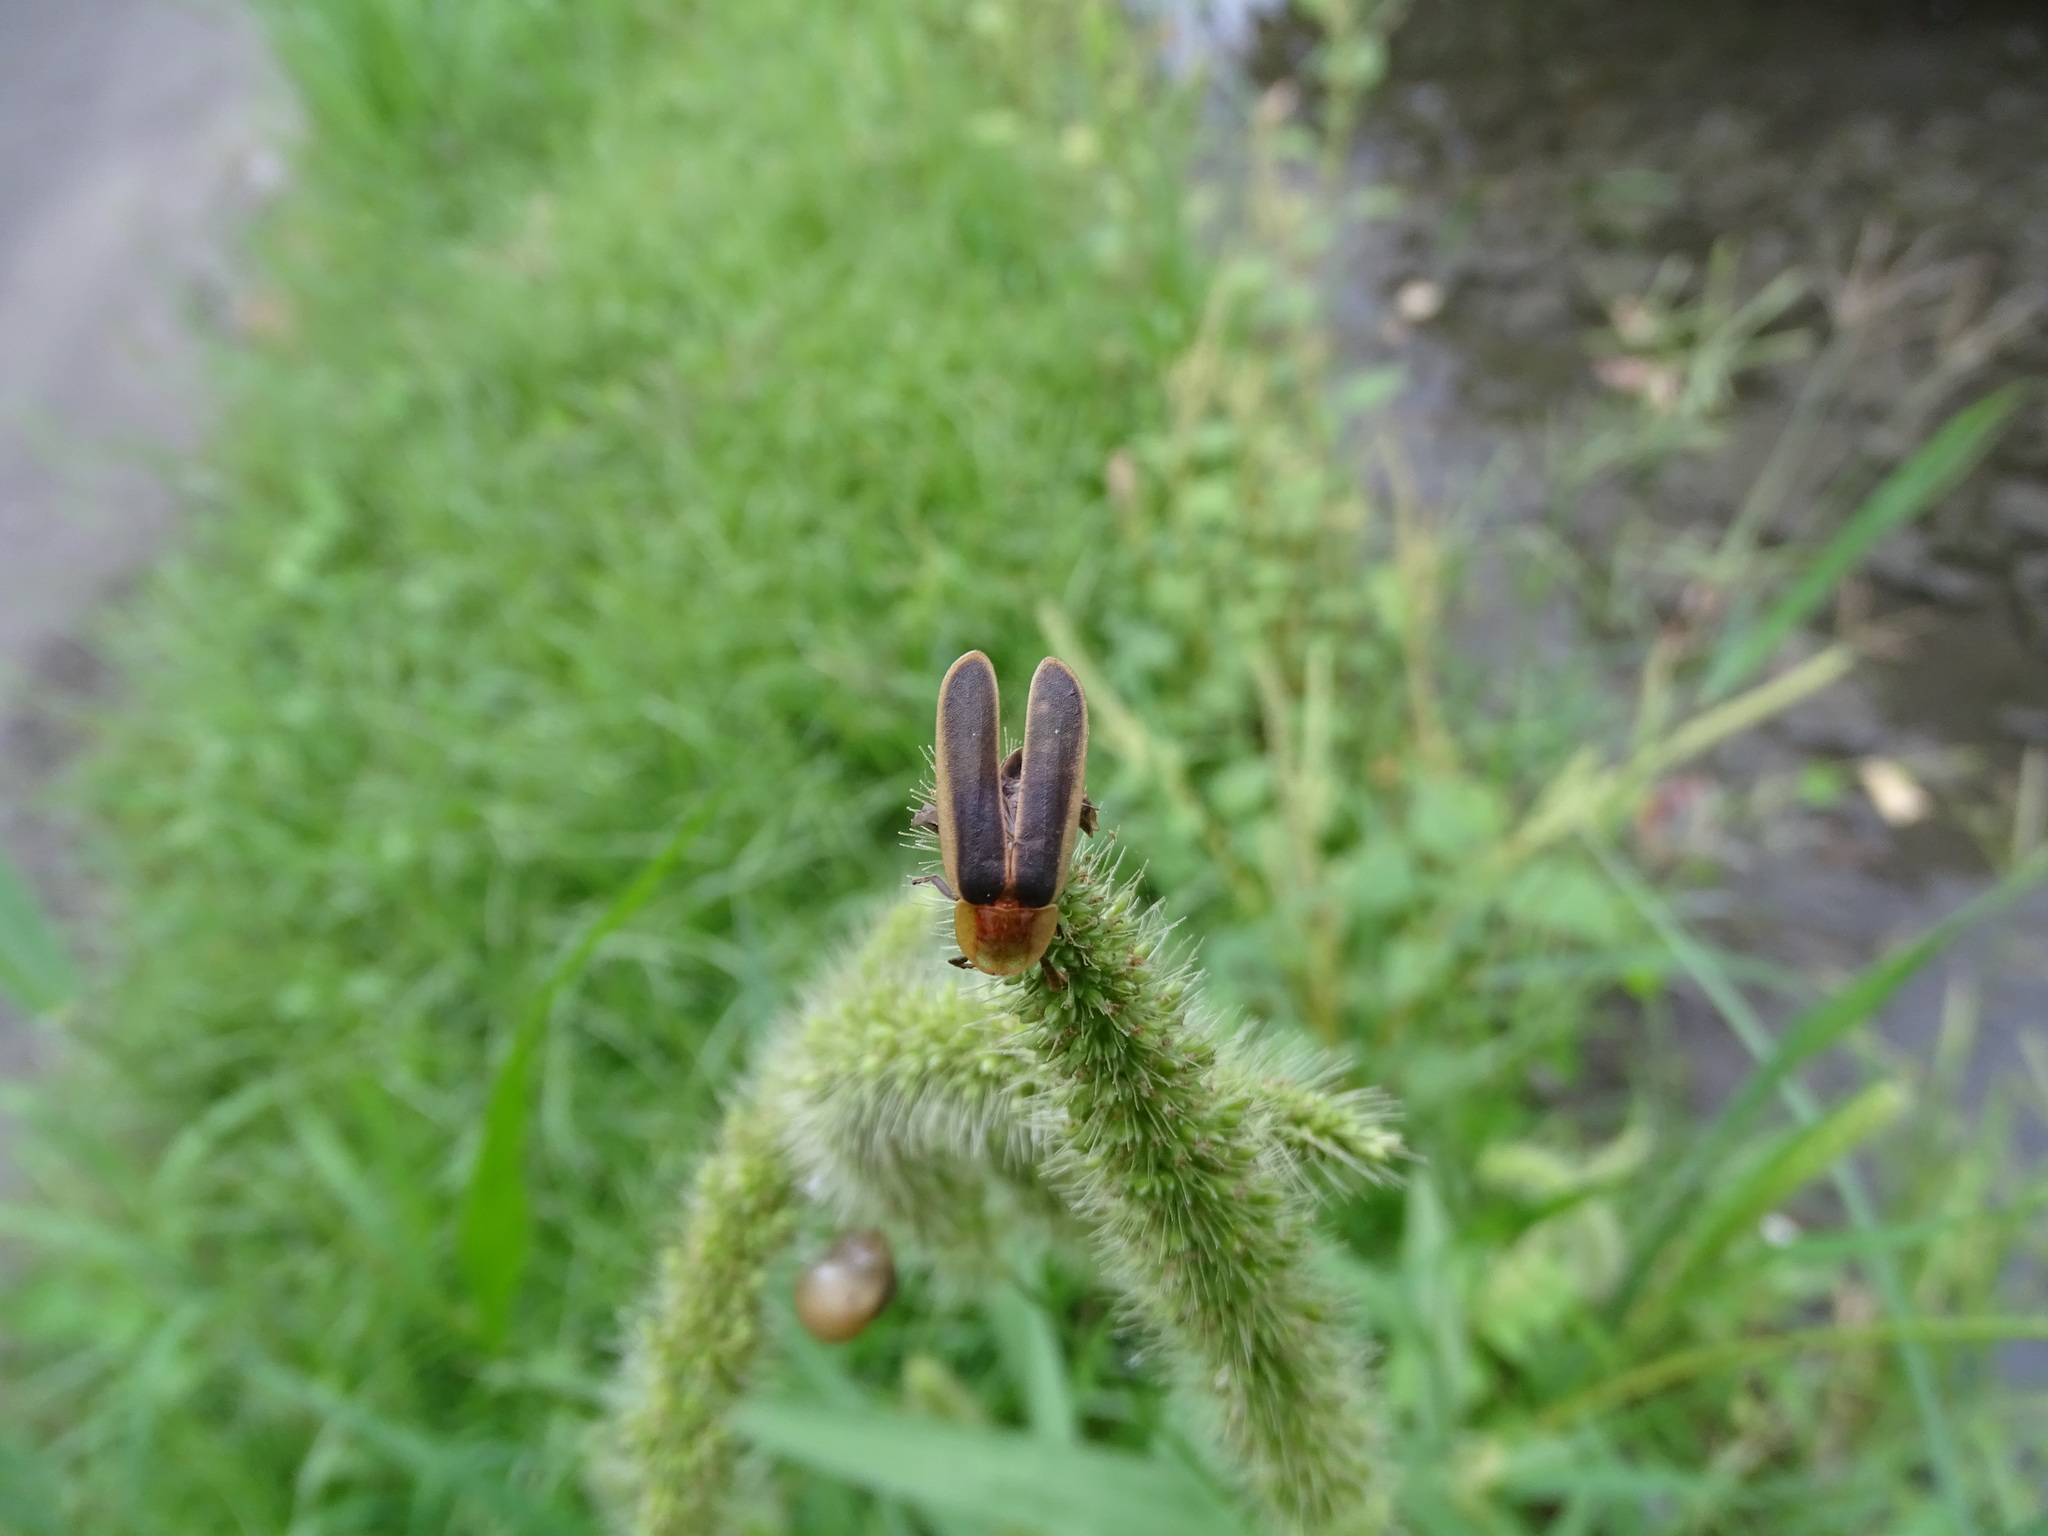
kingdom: Animalia
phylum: Arthropoda
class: Insecta
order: Coleoptera
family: Lampyridae
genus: Pyrocoelia
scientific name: Pyrocoelia analis
